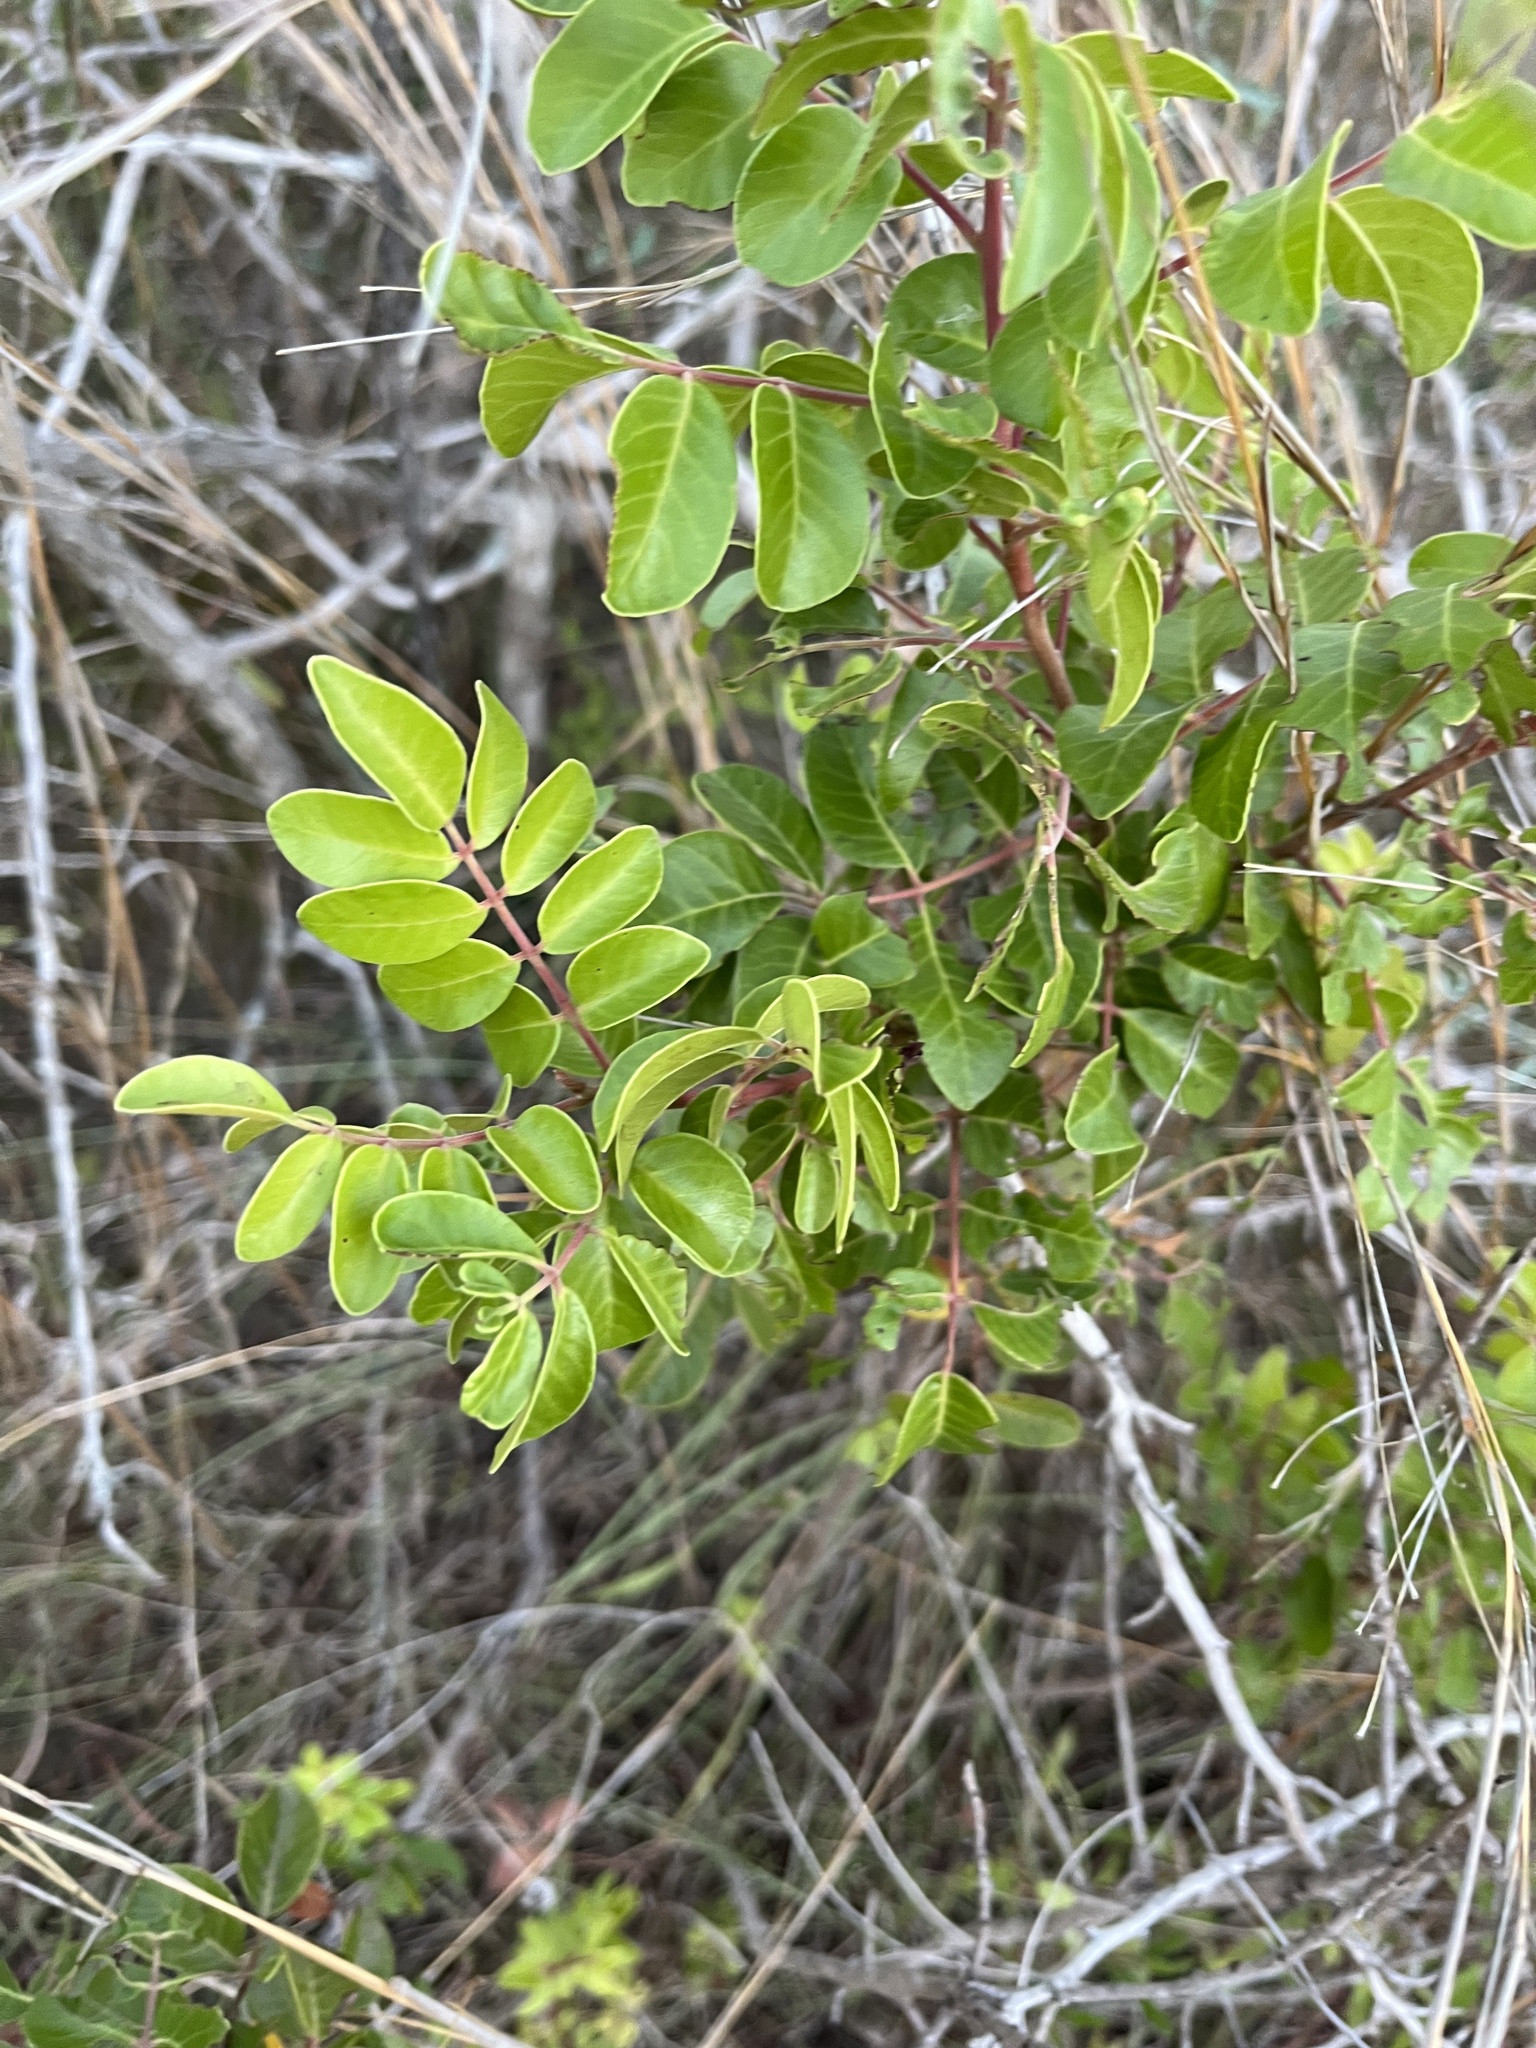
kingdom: Plantae
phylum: Tracheophyta
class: Magnoliopsida
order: Sapindales
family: Anacardiaceae
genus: Rhus
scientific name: Rhus virens
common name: Evergreen sumac
